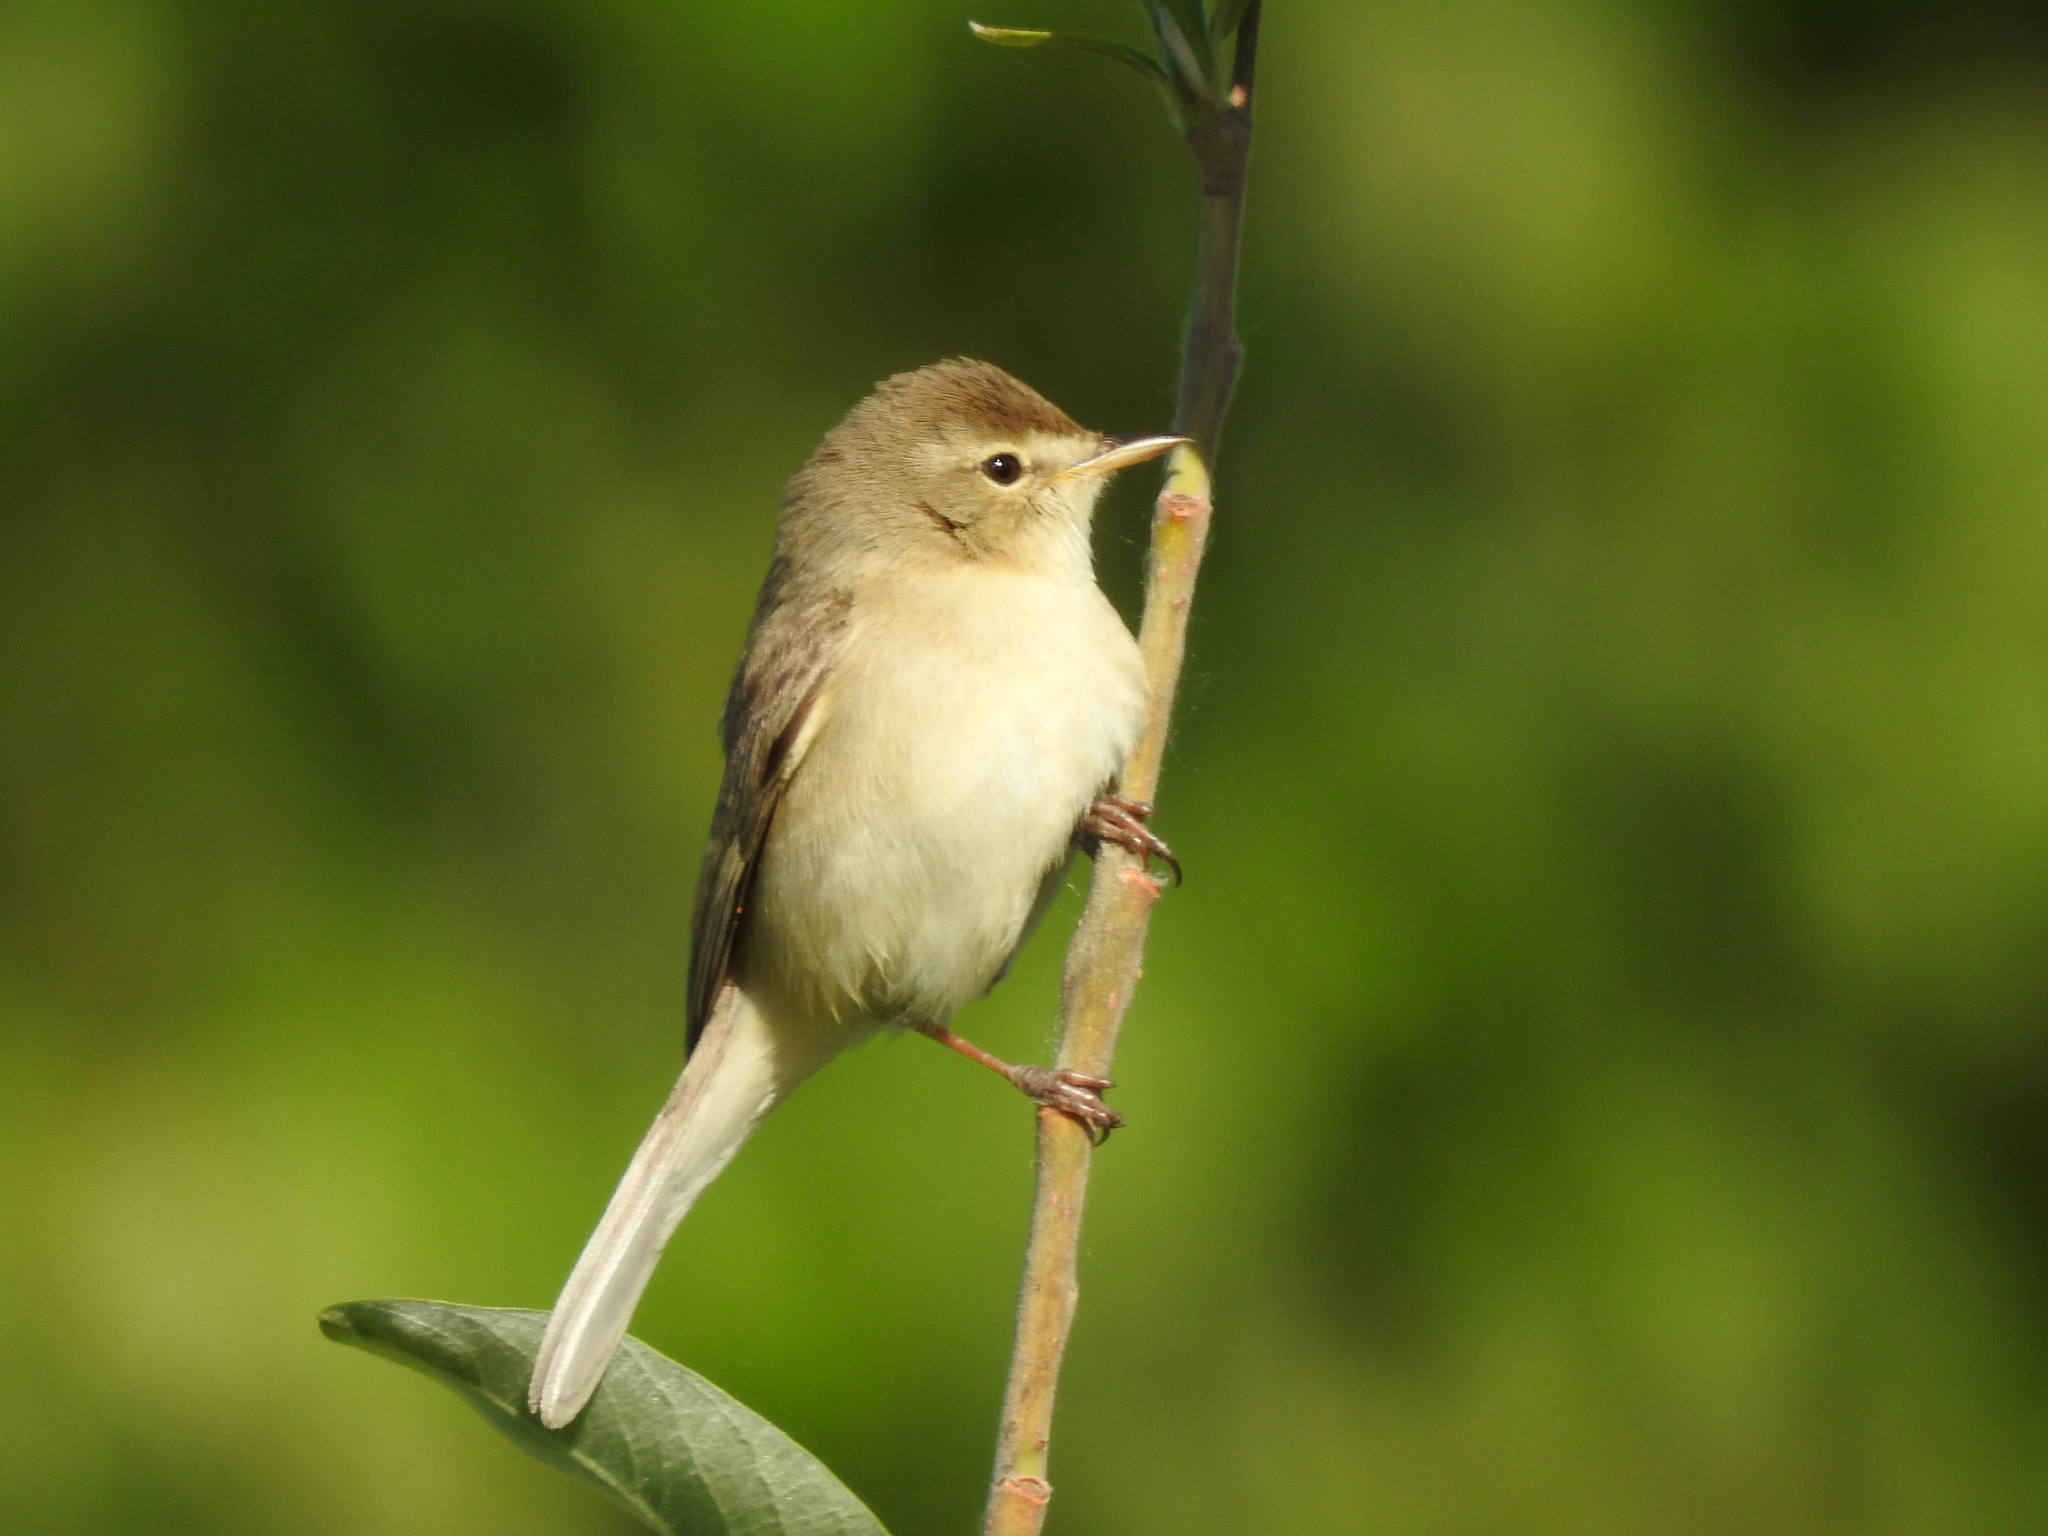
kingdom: Animalia
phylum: Chordata
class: Aves
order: Passeriformes
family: Acrocephalidae
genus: Iduna
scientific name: Iduna caligata
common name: Booted warbler
